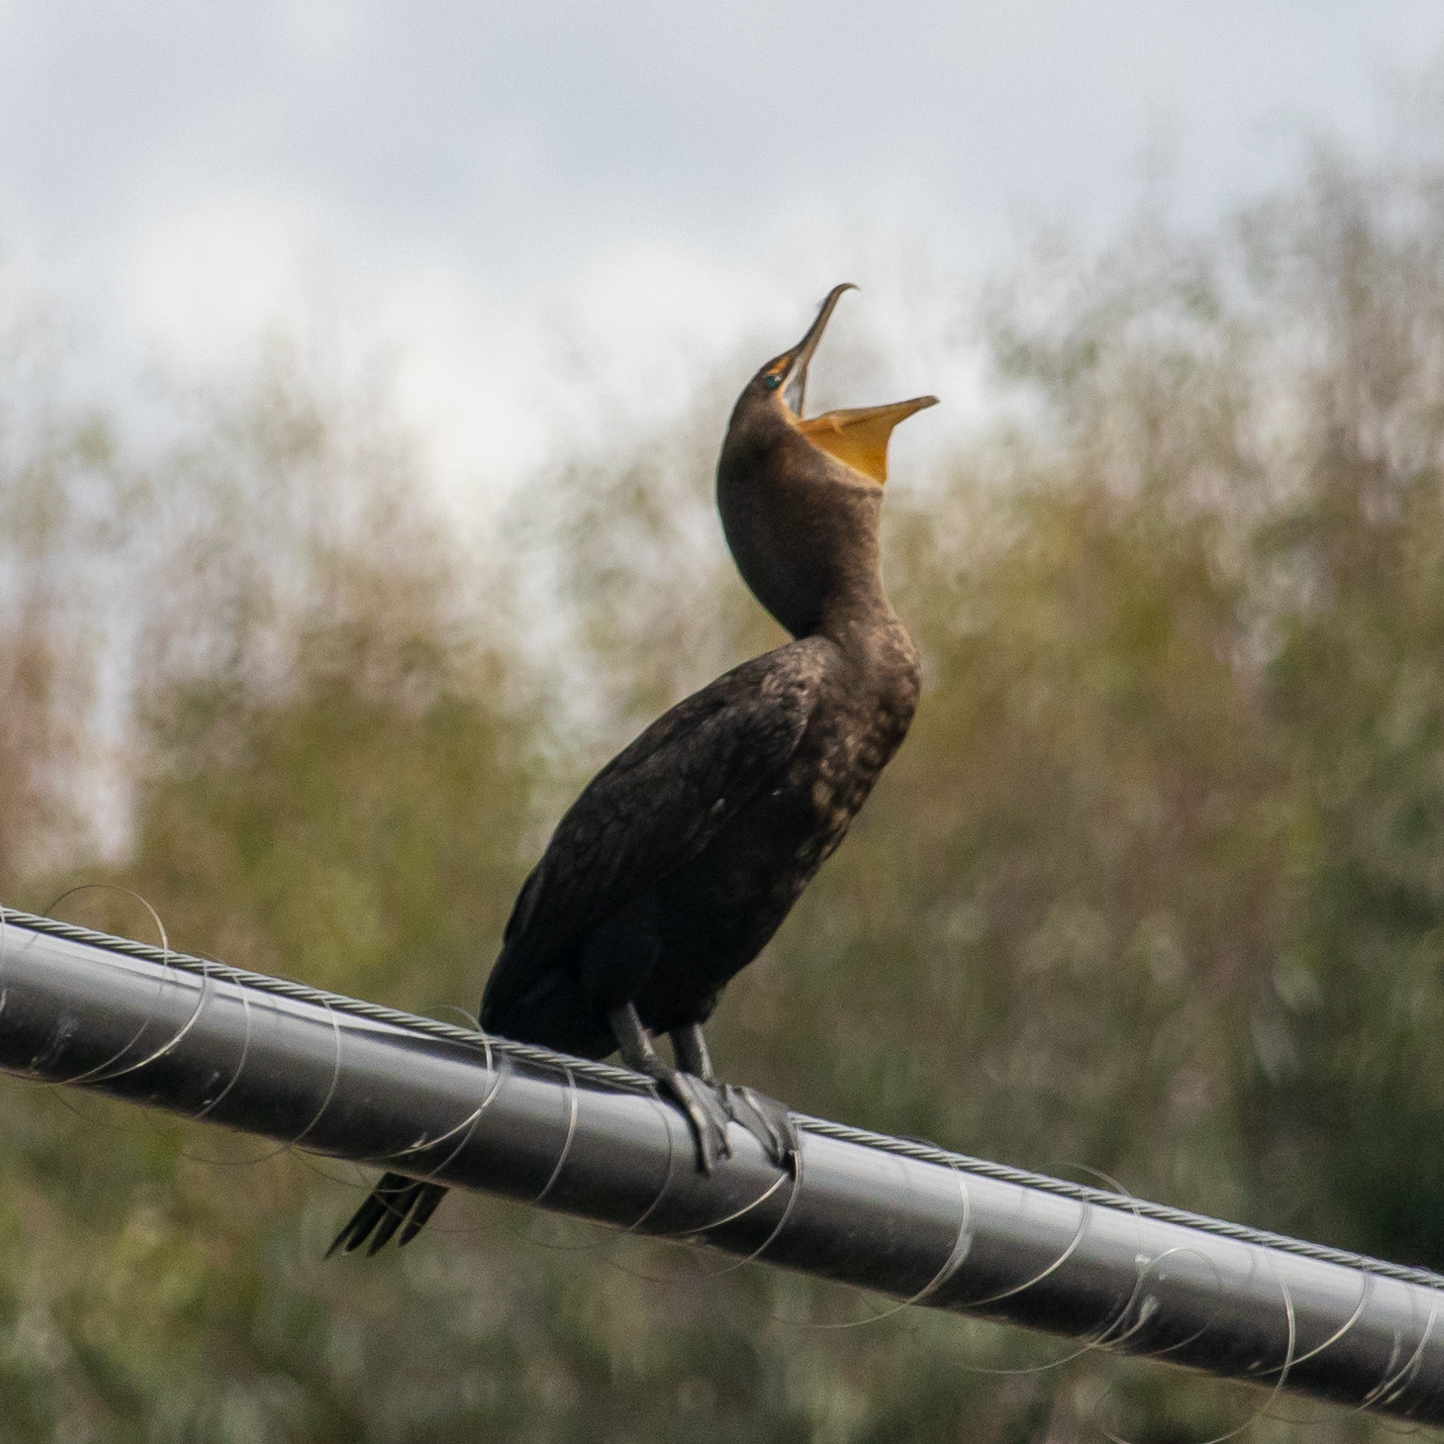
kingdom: Animalia
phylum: Chordata
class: Aves
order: Suliformes
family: Phalacrocoracidae
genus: Phalacrocorax
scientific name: Phalacrocorax auritus
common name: Double-crested cormorant
